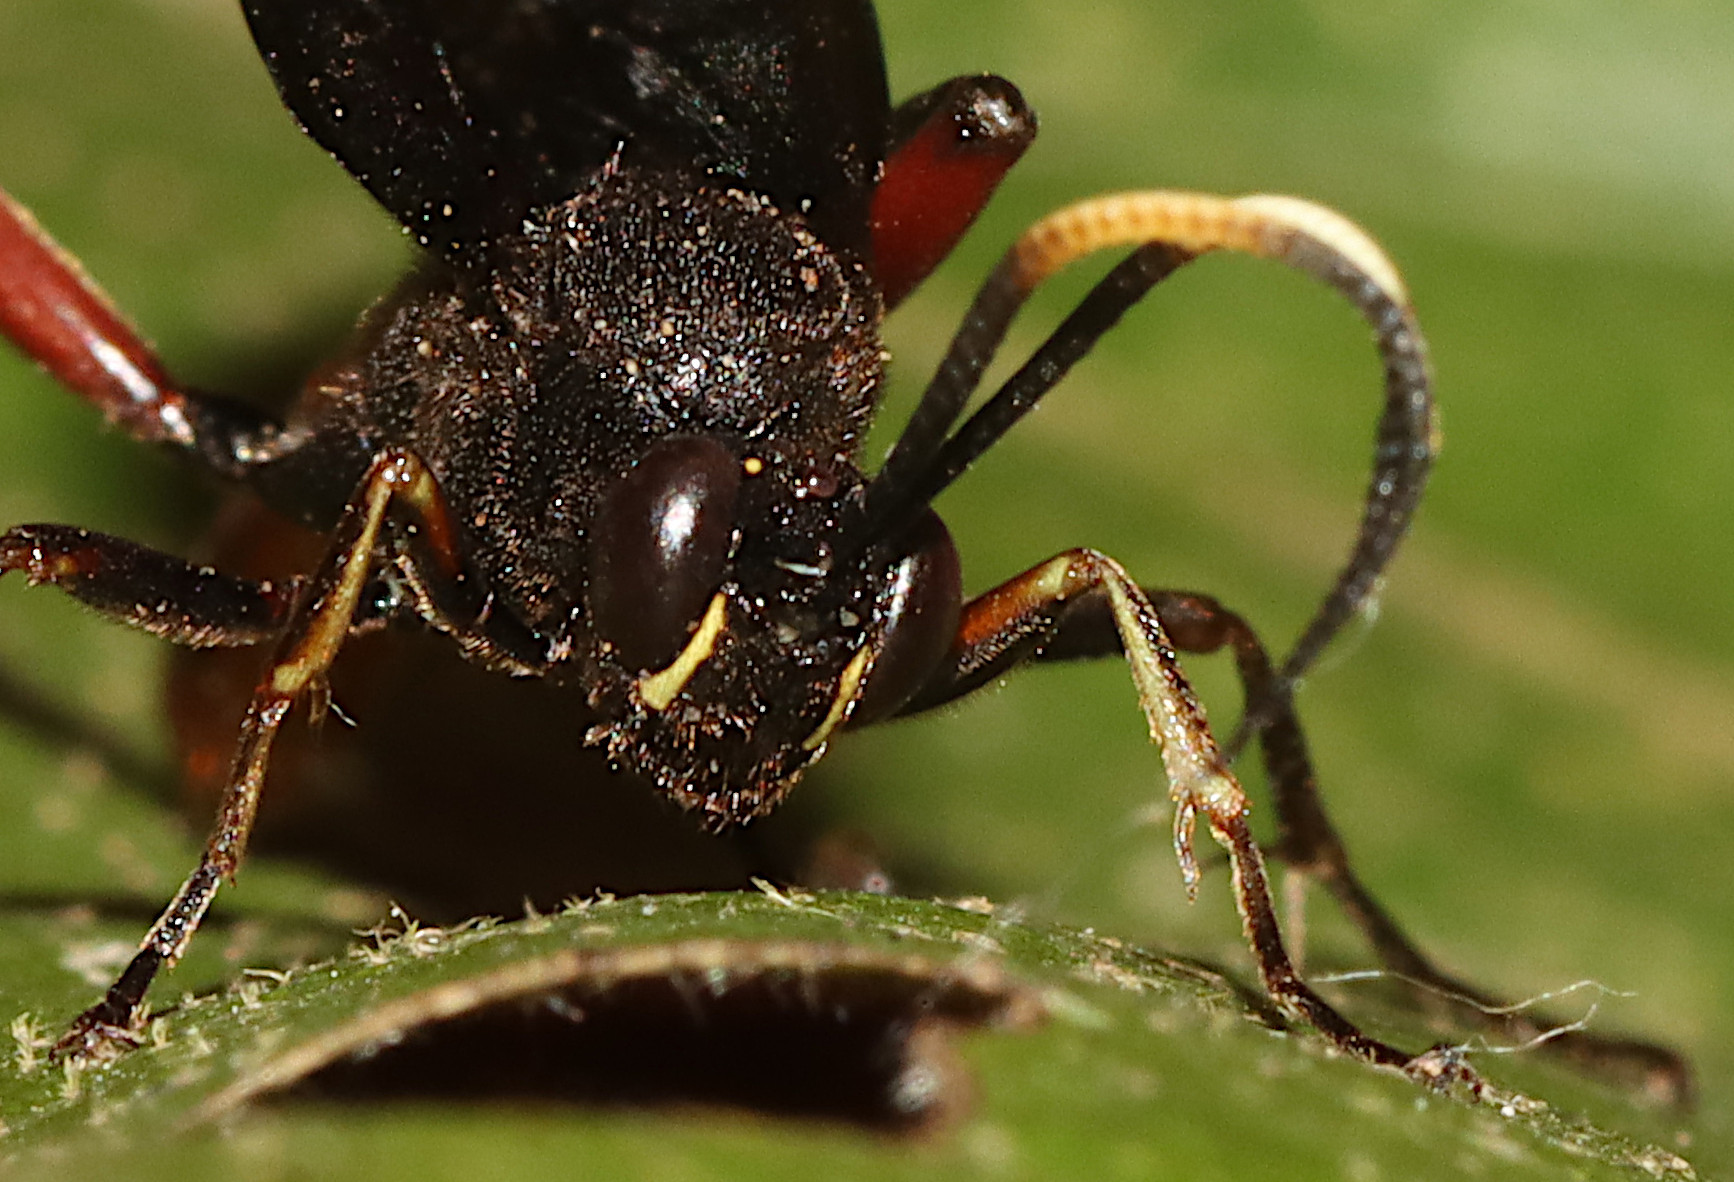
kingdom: Animalia
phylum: Arthropoda
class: Insecta
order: Hymenoptera
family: Ichneumonidae
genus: Limonethe
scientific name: Limonethe maurator
